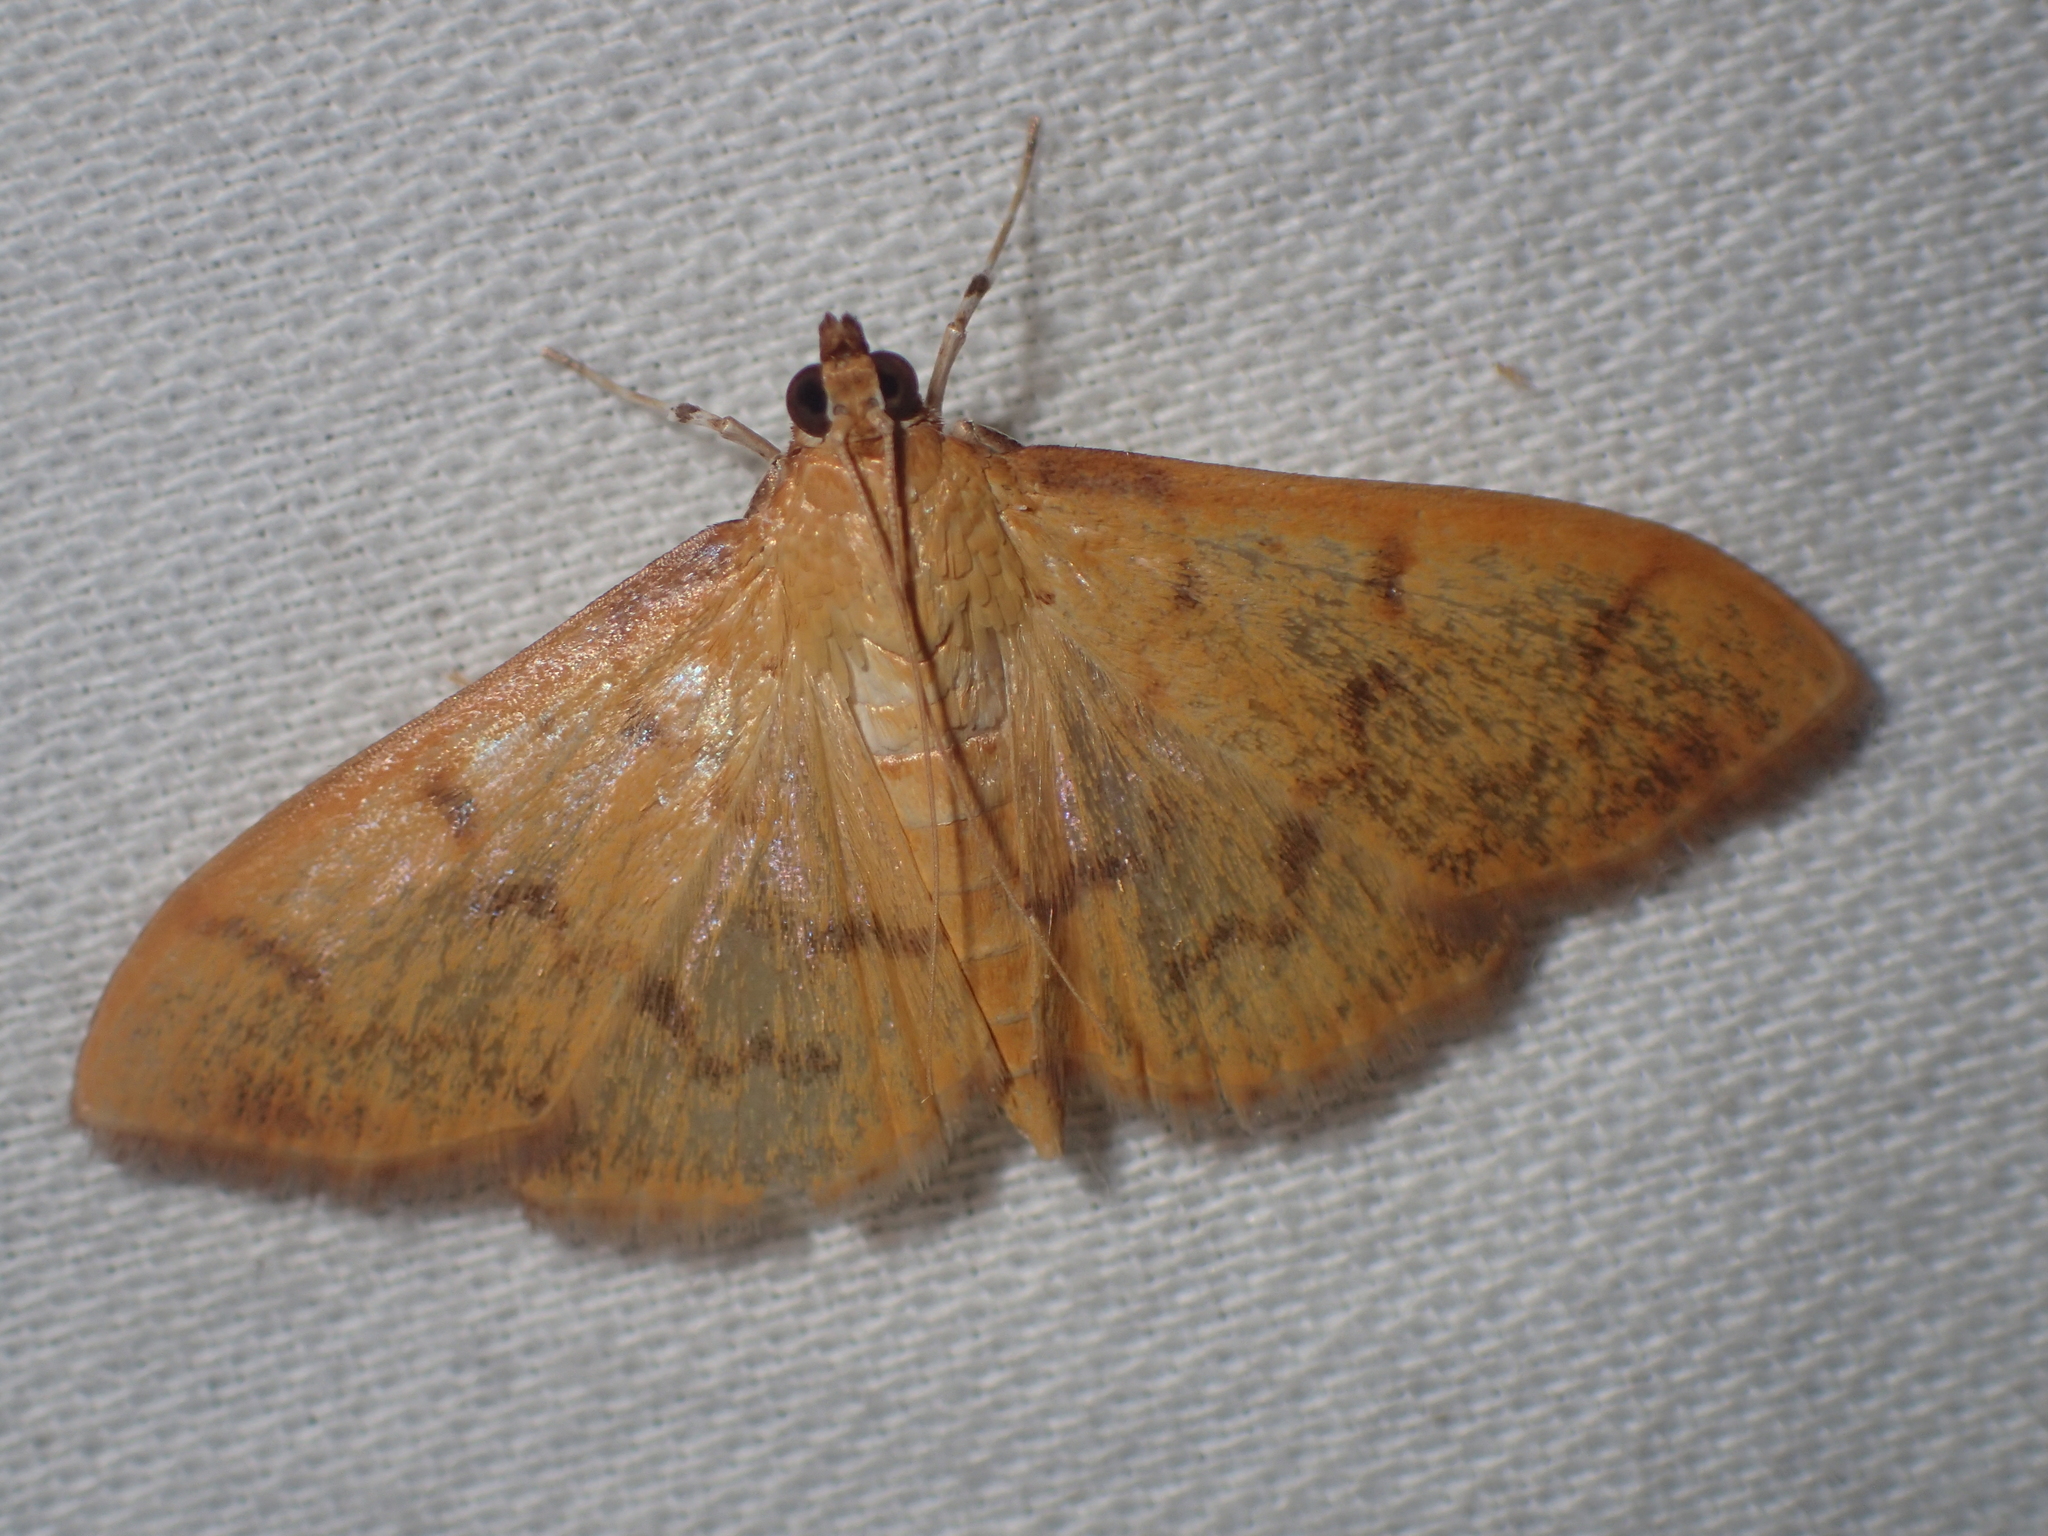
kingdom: Animalia
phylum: Arthropoda
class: Insecta
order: Lepidoptera
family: Crambidae
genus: Pleuroptya
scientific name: Pleuroptya balteata
